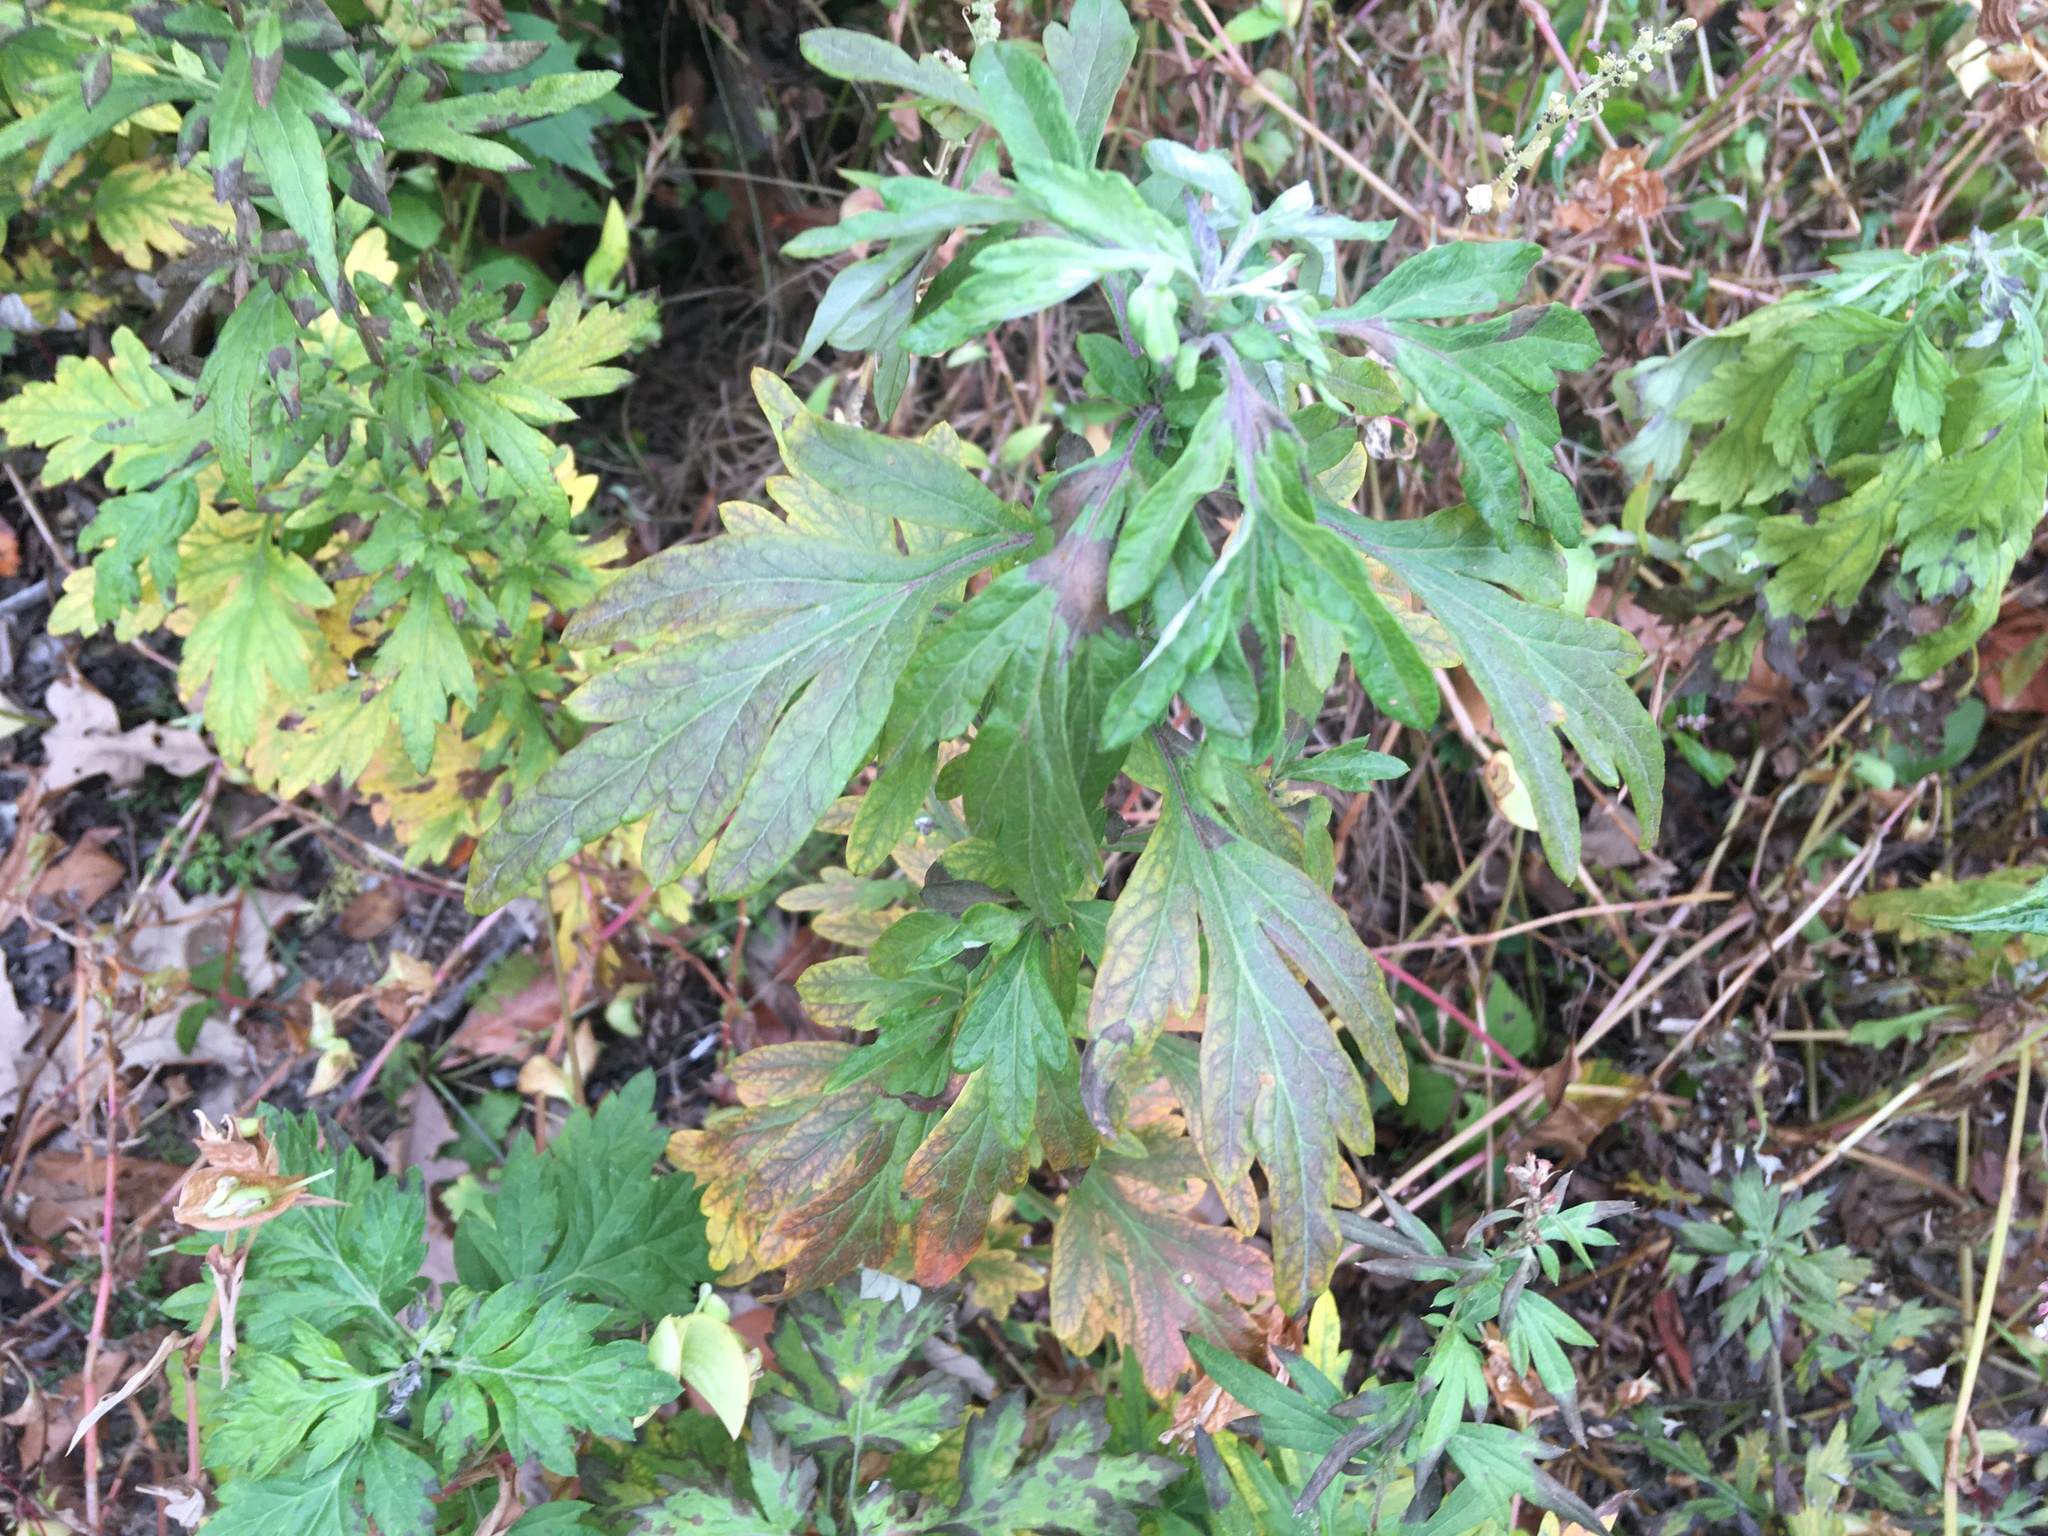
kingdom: Plantae
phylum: Tracheophyta
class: Magnoliopsida
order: Asterales
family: Asteraceae
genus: Artemisia
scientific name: Artemisia vulgaris
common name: Mugwort
